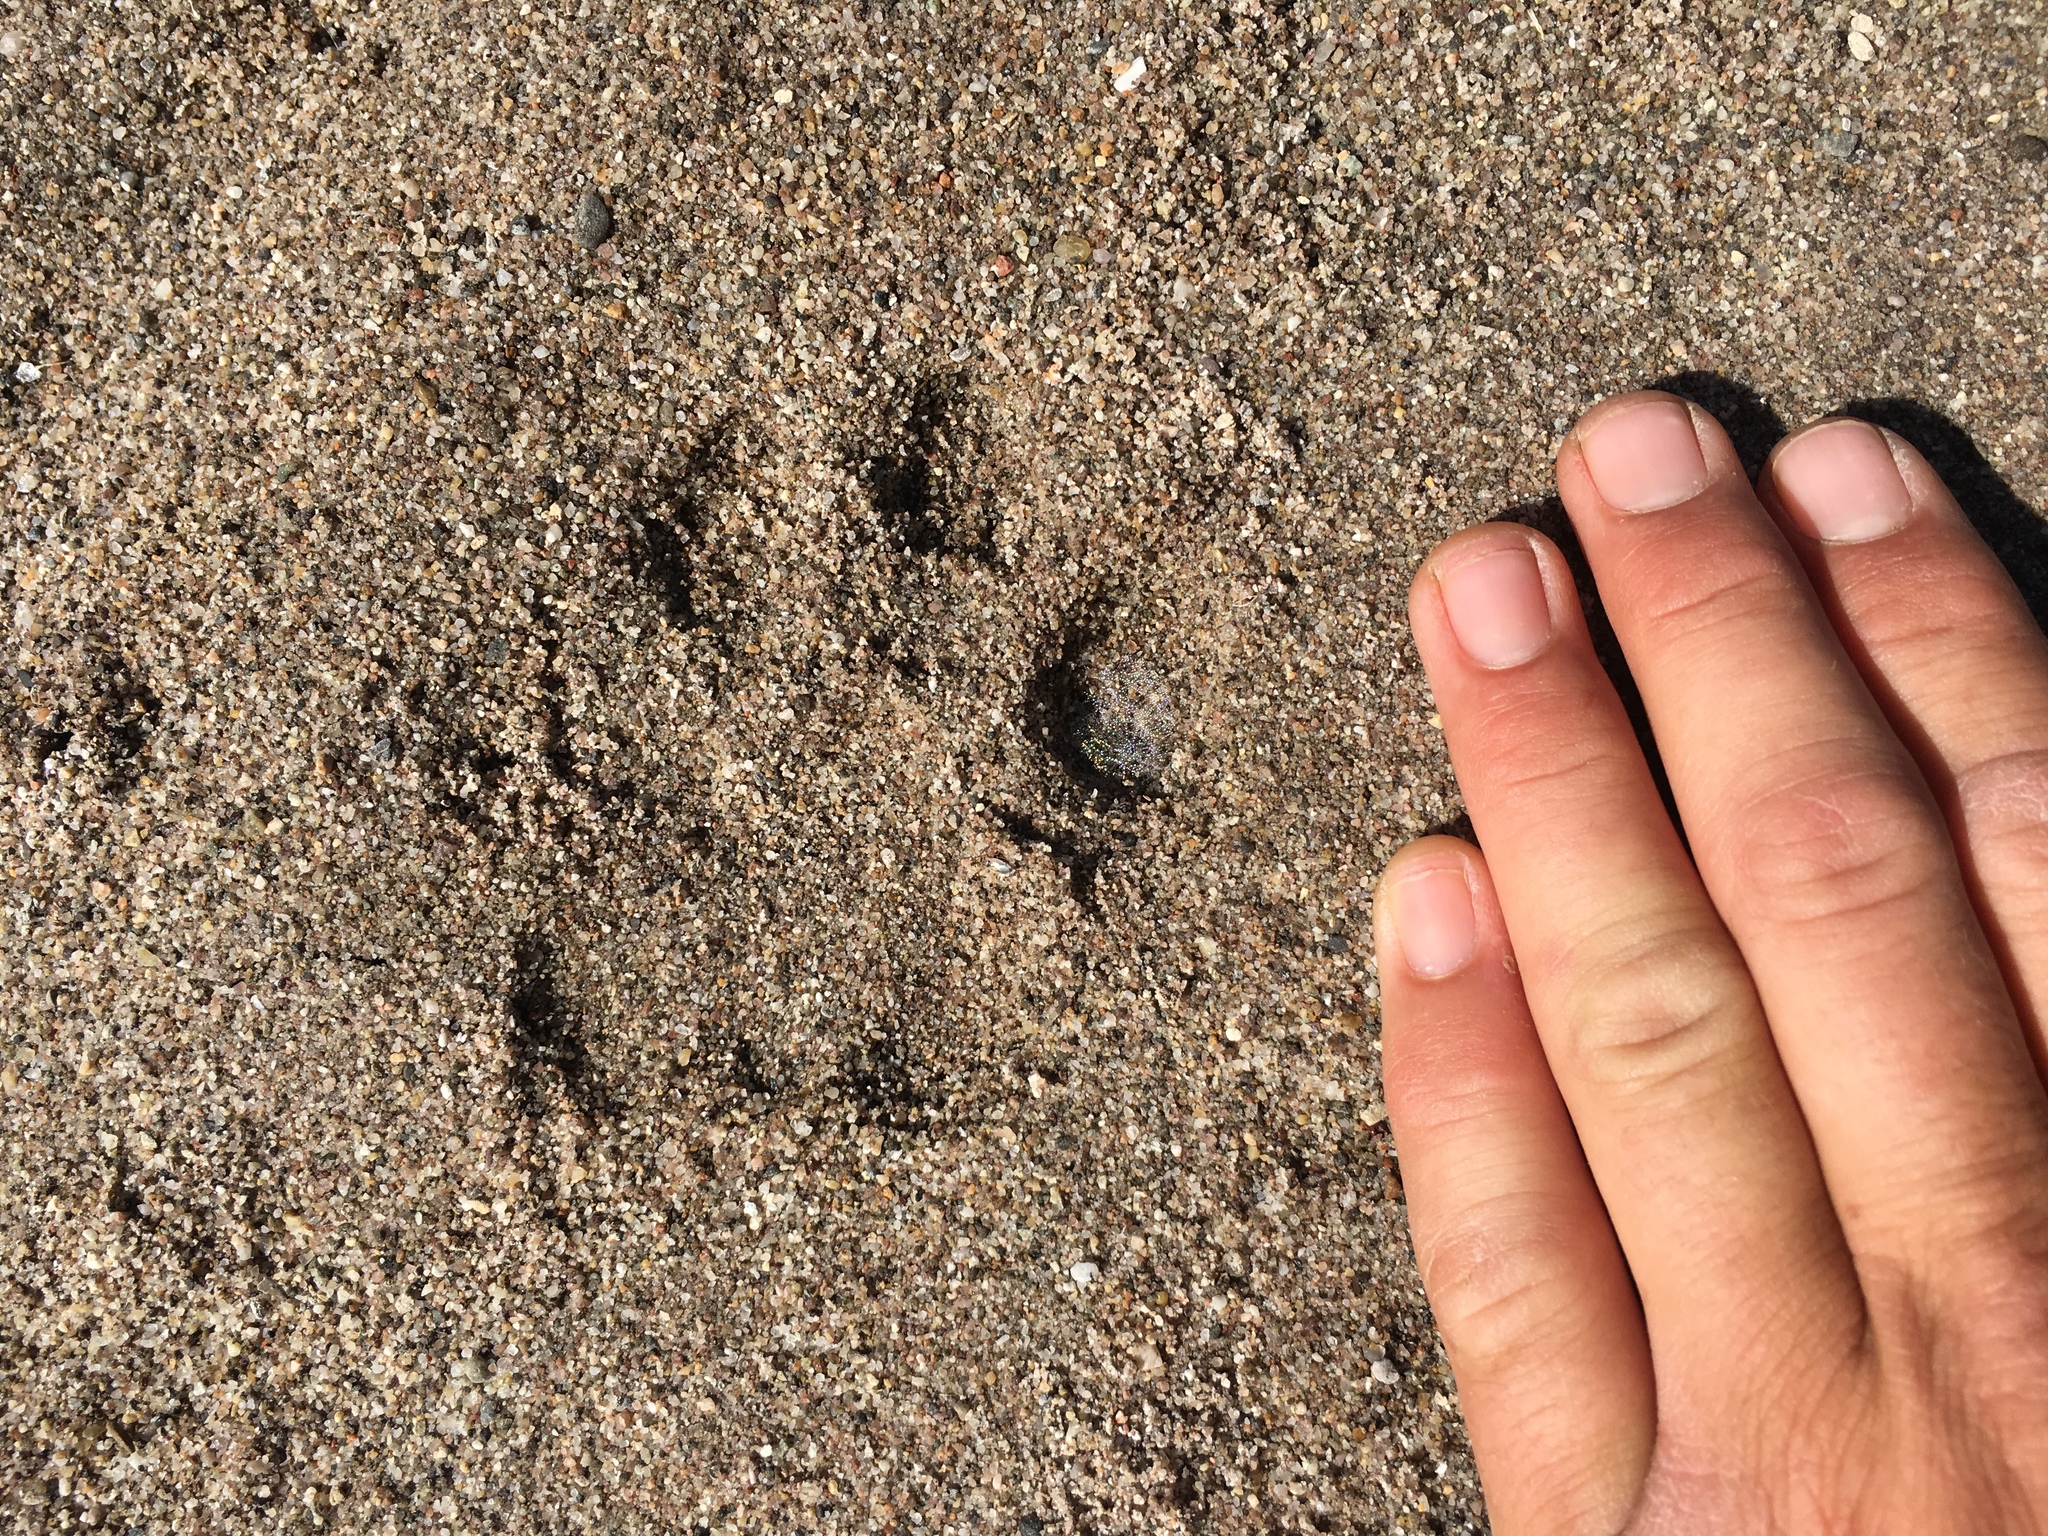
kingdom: Animalia
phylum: Chordata
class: Mammalia
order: Carnivora
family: Felidae
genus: Puma
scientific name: Puma concolor
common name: Puma
